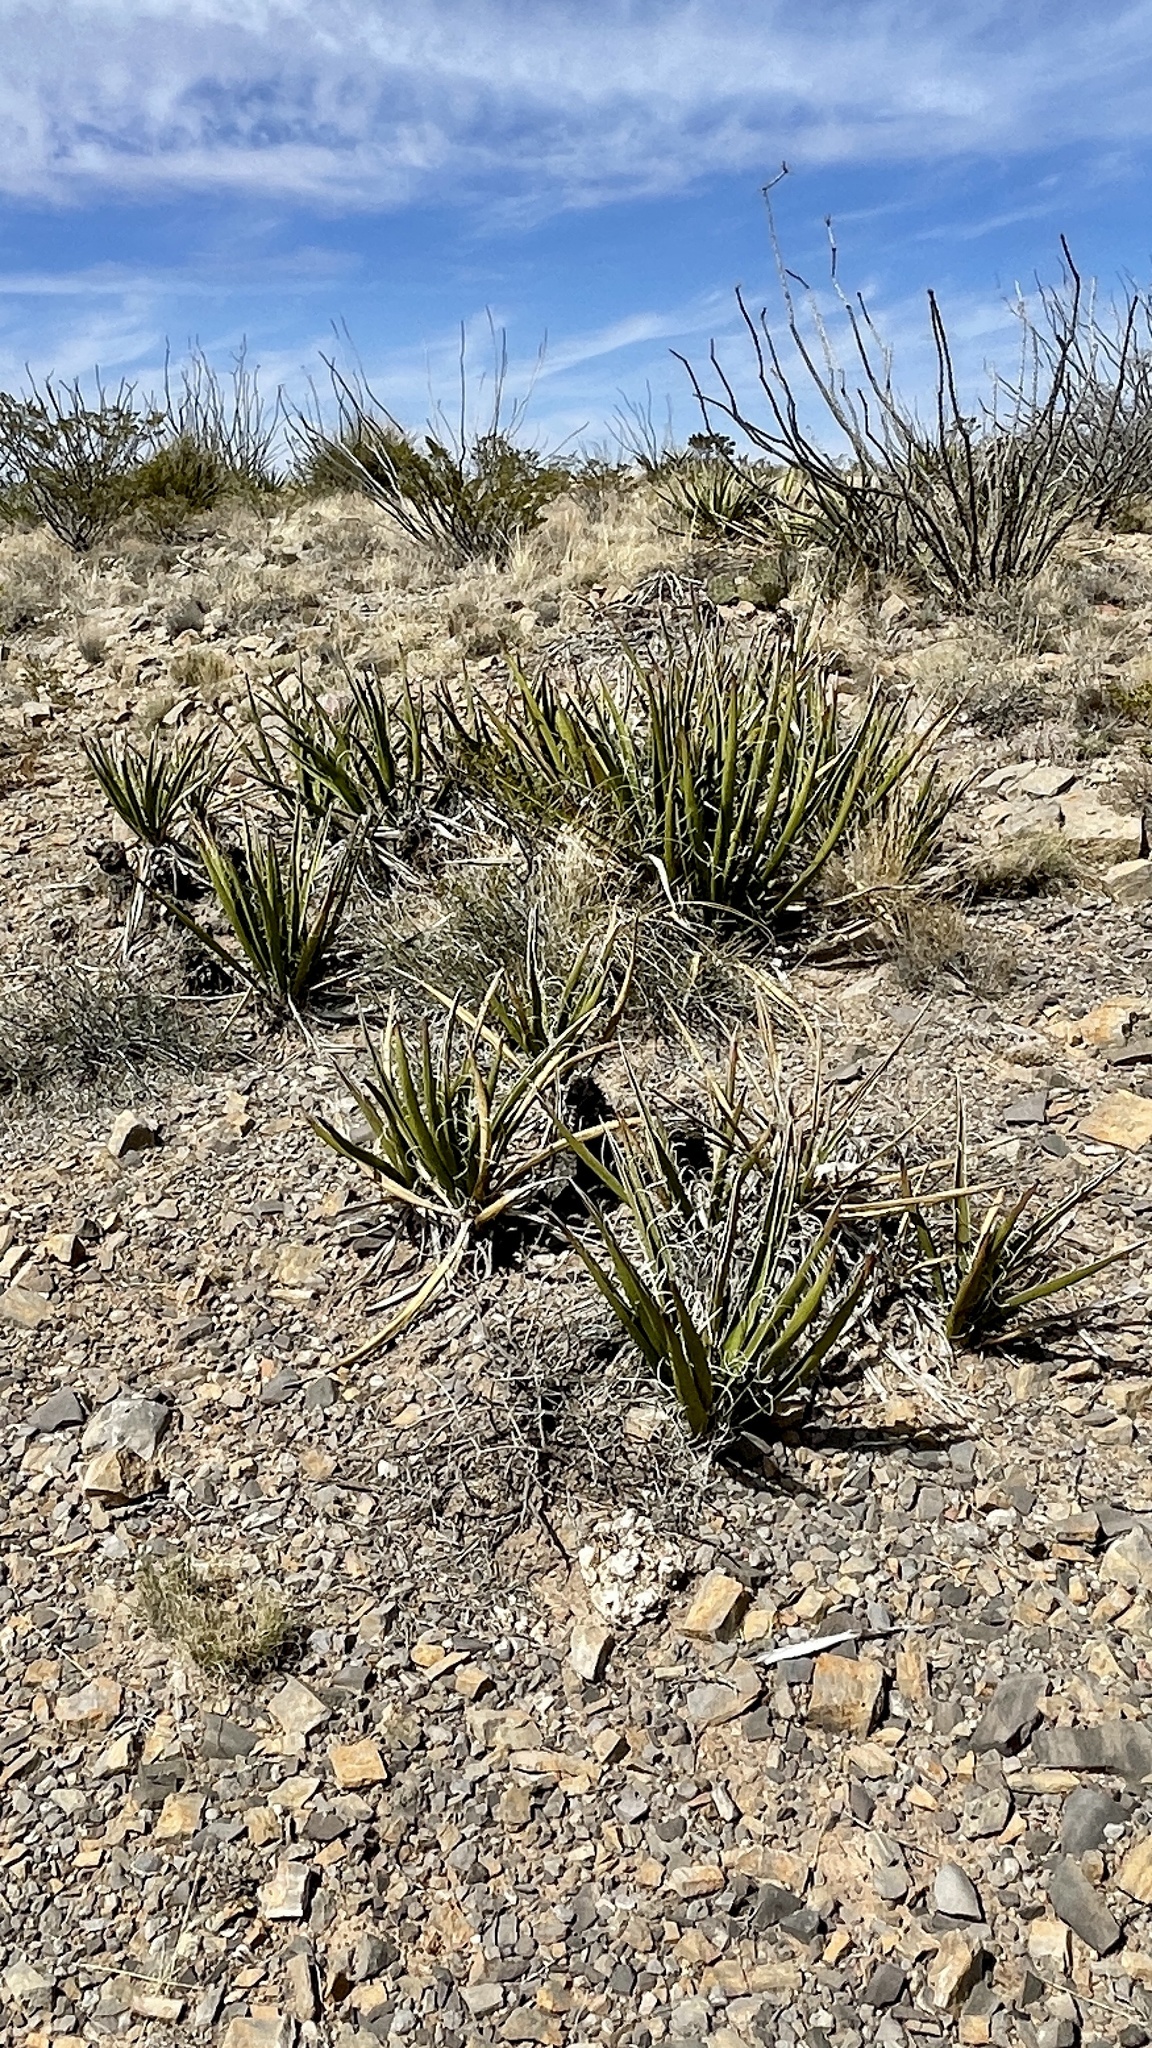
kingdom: Plantae
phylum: Tracheophyta
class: Liliopsida
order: Asparagales
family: Asparagaceae
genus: Yucca
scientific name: Yucca baccata
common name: Banana yucca
